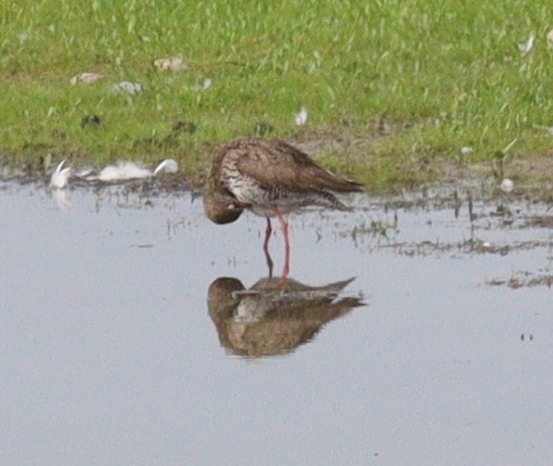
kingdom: Animalia
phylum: Chordata
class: Aves
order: Charadriiformes
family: Scolopacidae
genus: Tringa
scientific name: Tringa totanus
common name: Common redshank
